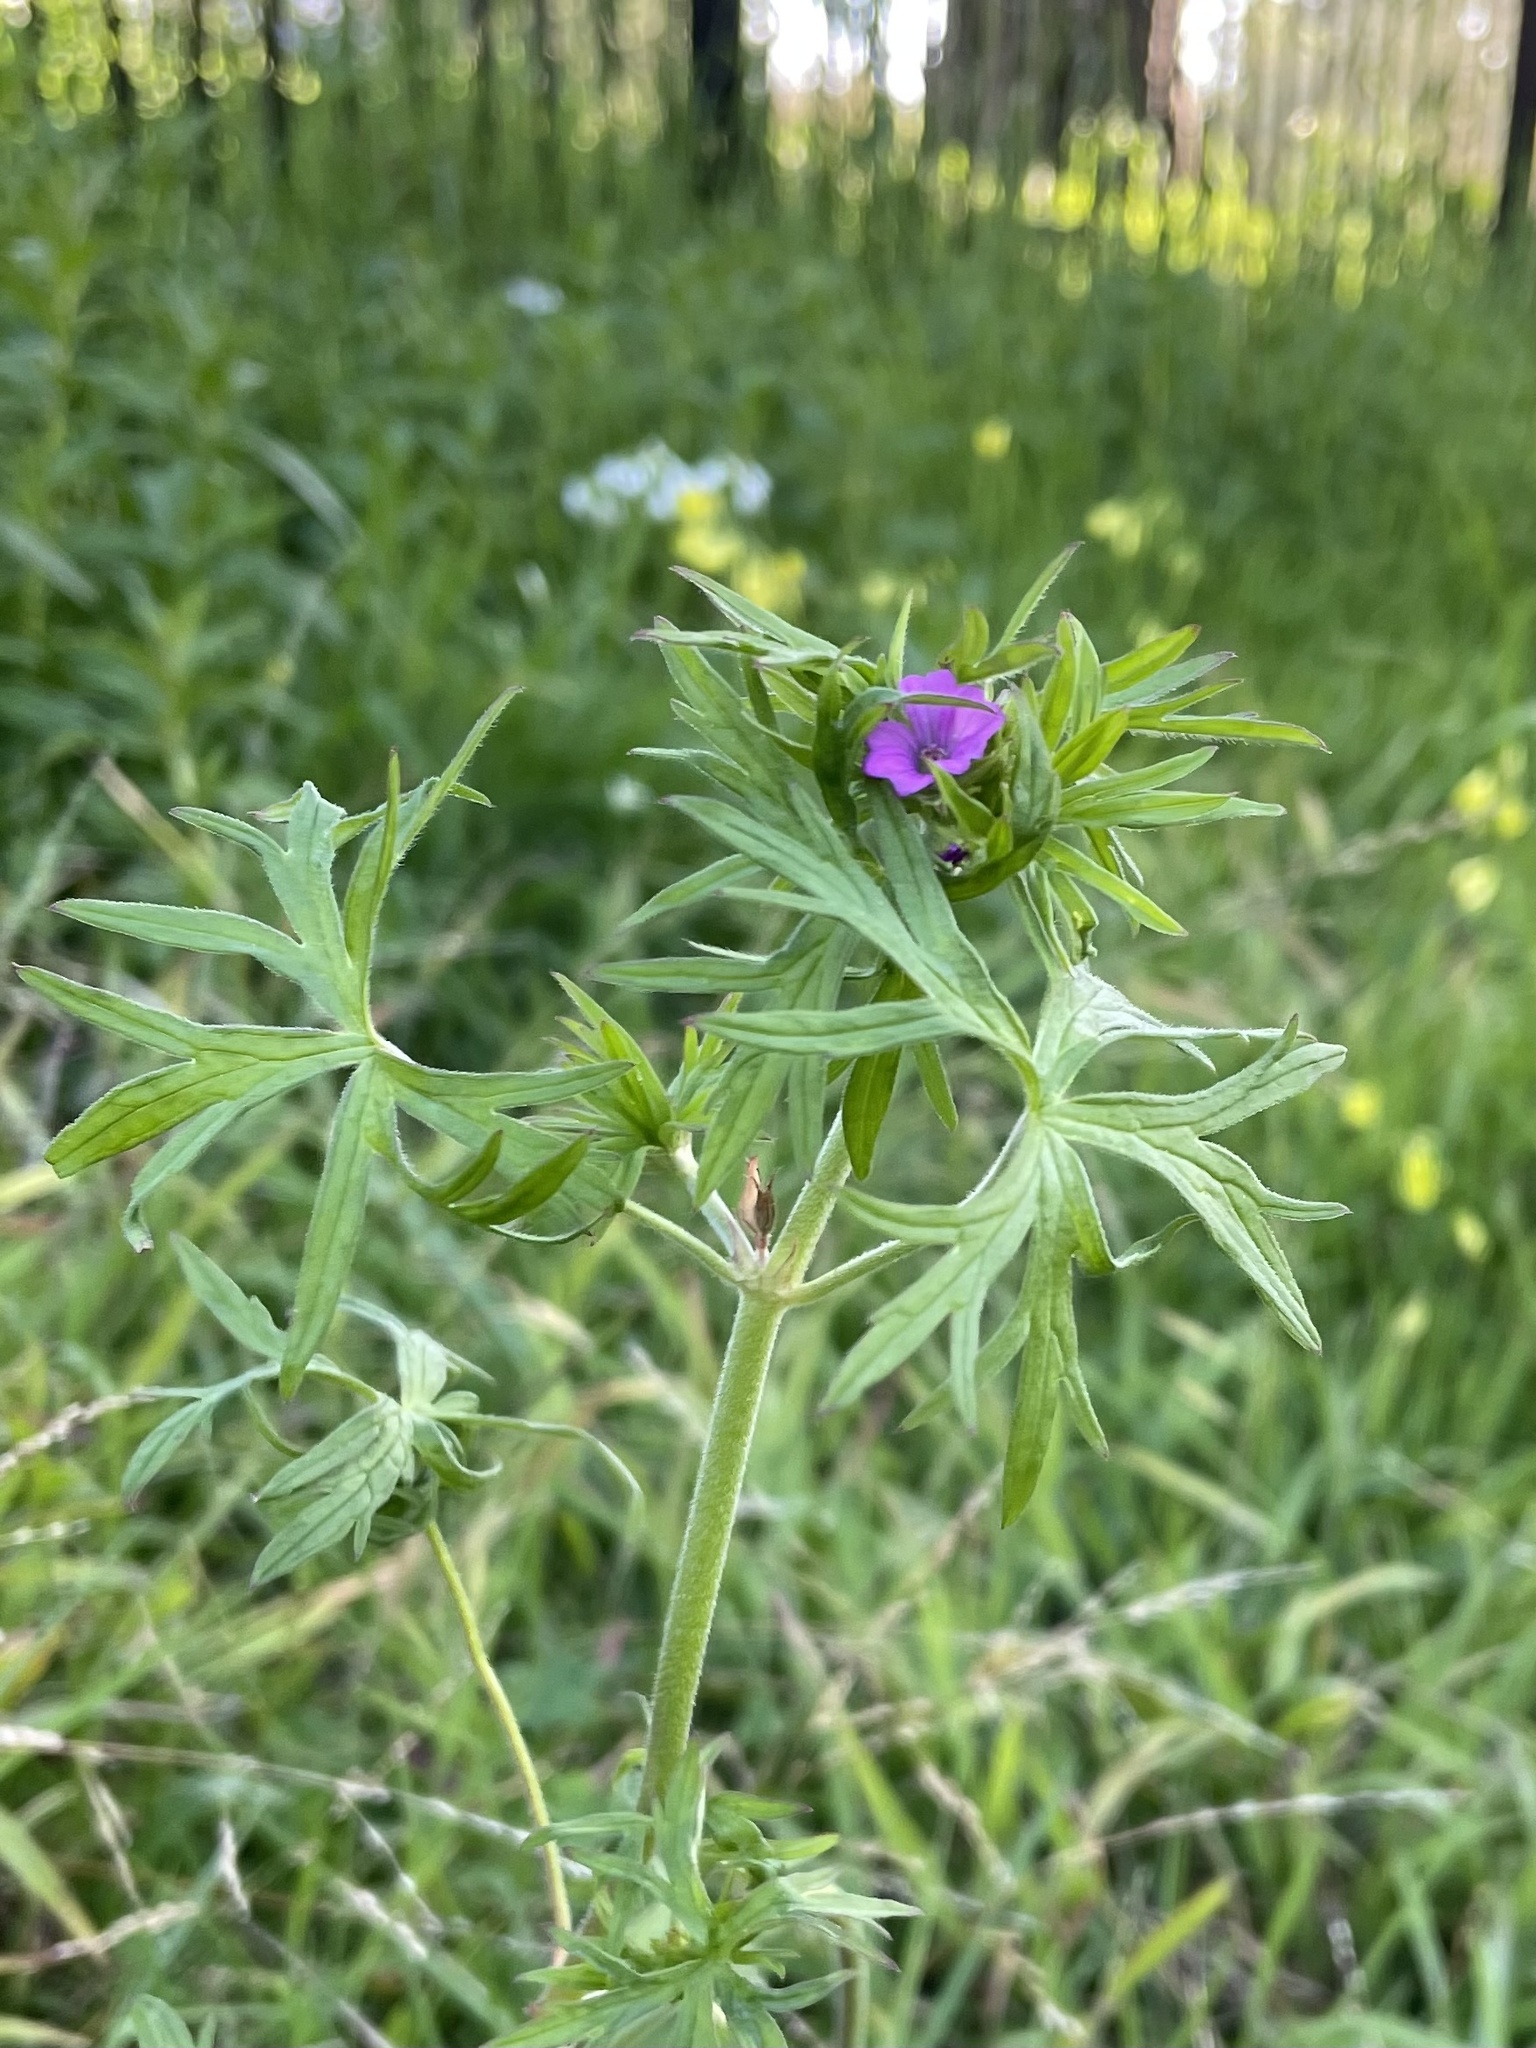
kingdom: Plantae
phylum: Tracheophyta
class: Magnoliopsida
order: Geraniales
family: Geraniaceae
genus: Geranium
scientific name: Geranium dissectum
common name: Cut-leaved crane's-bill
